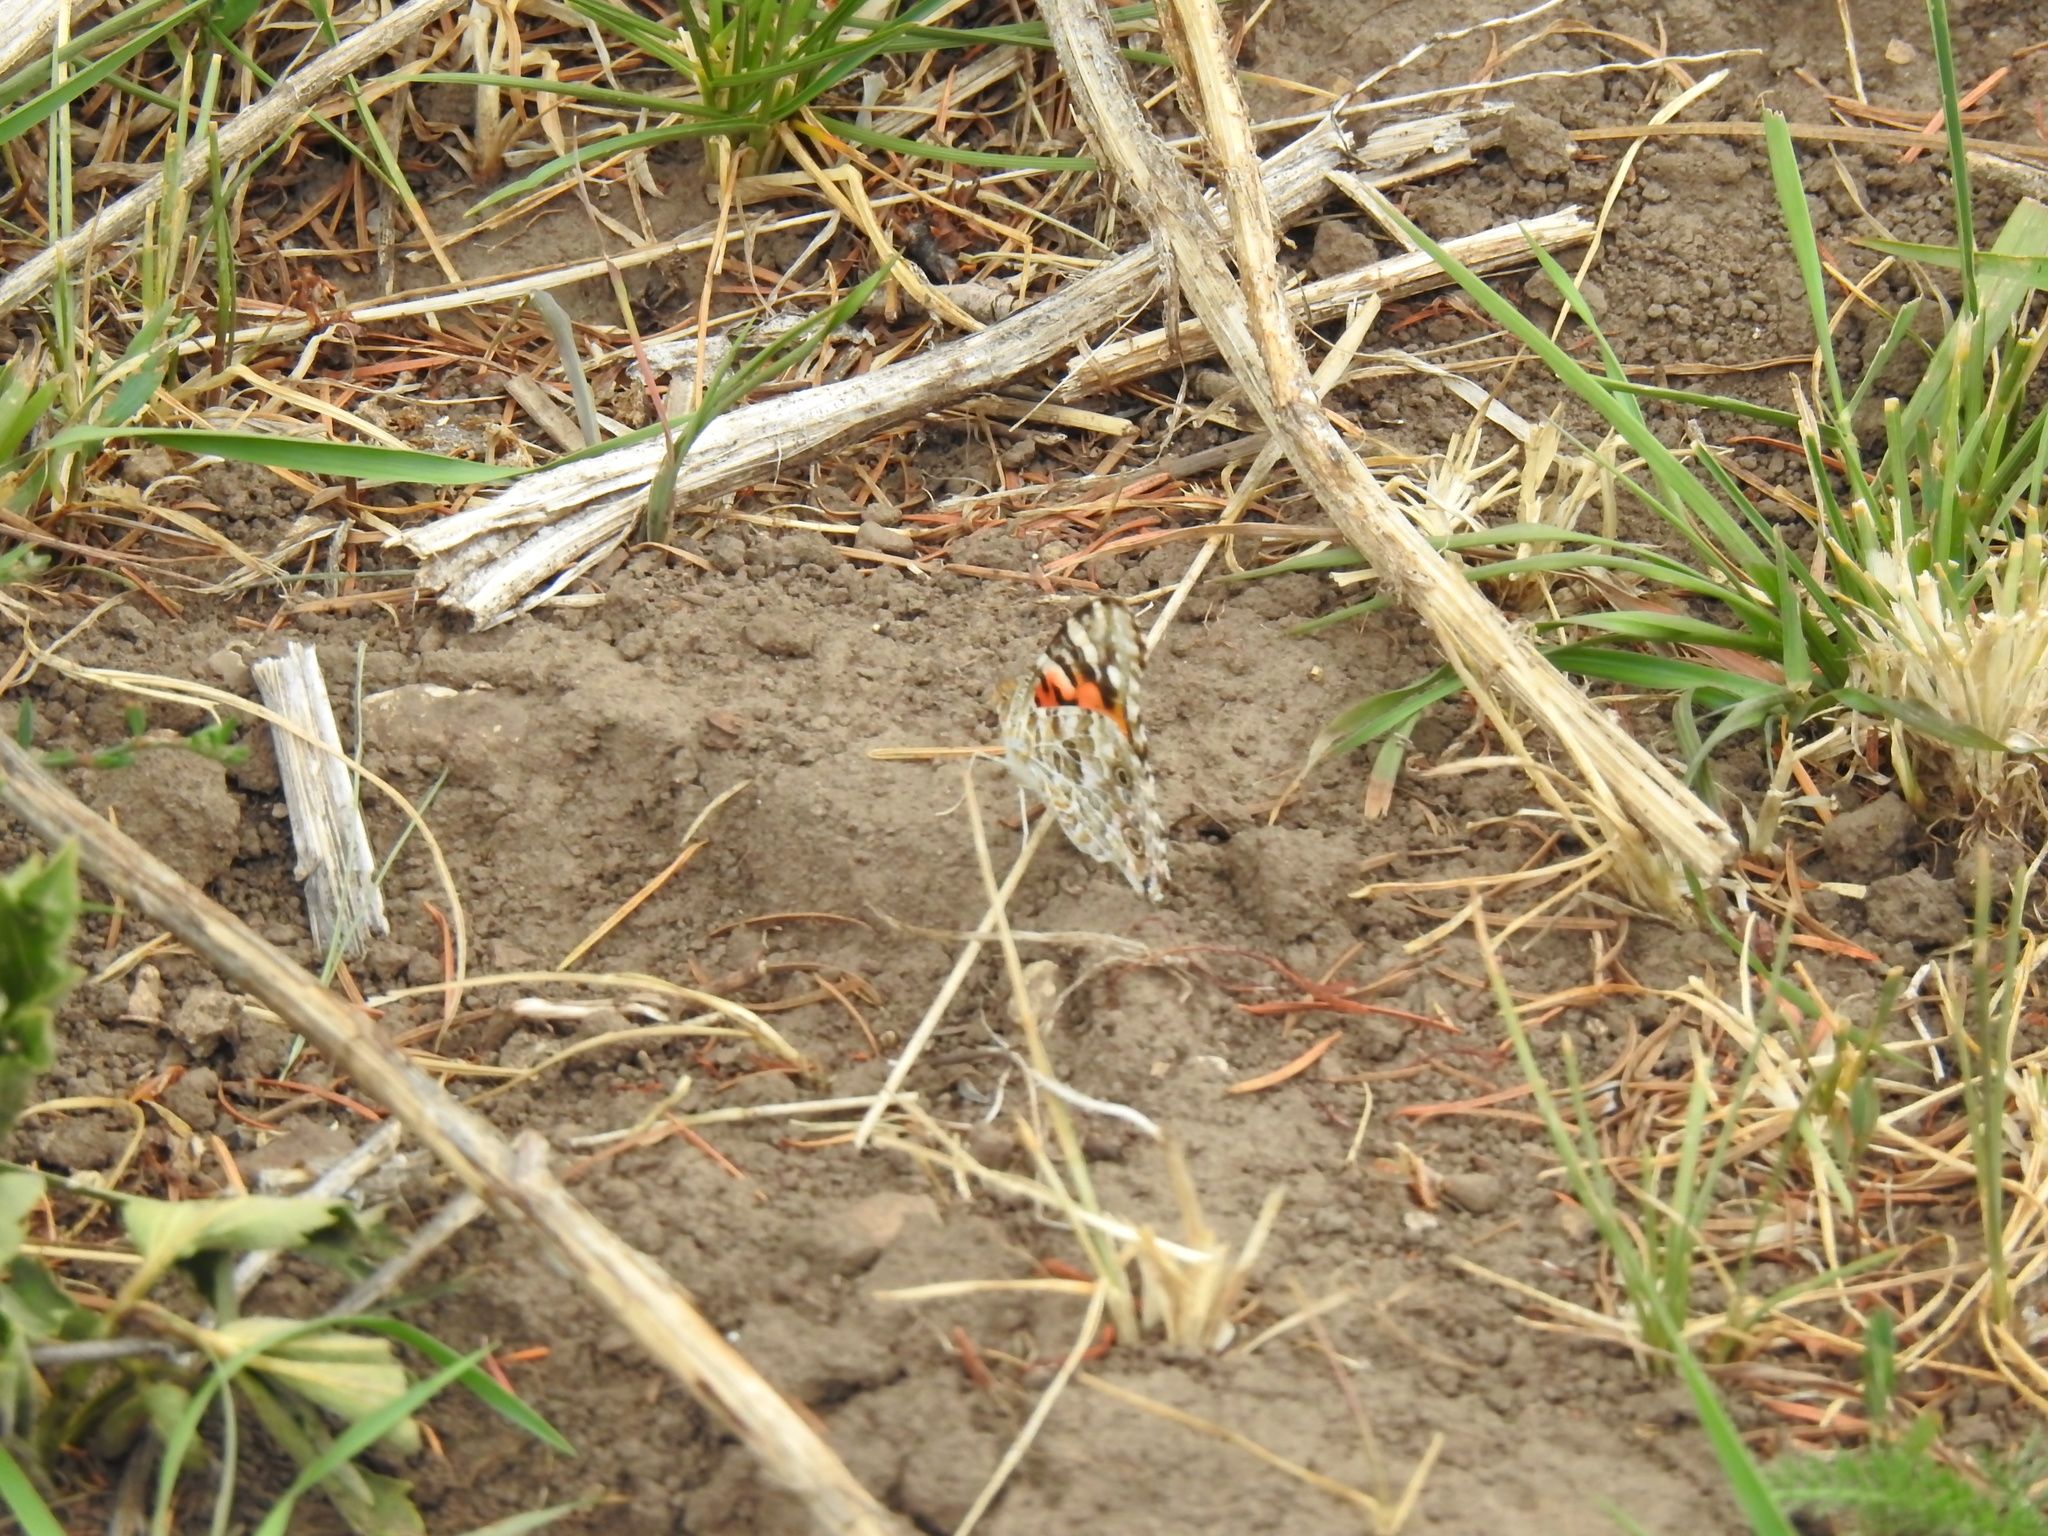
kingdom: Animalia
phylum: Arthropoda
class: Insecta
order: Lepidoptera
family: Nymphalidae
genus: Vanessa
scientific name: Vanessa cardui
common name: Painted lady
